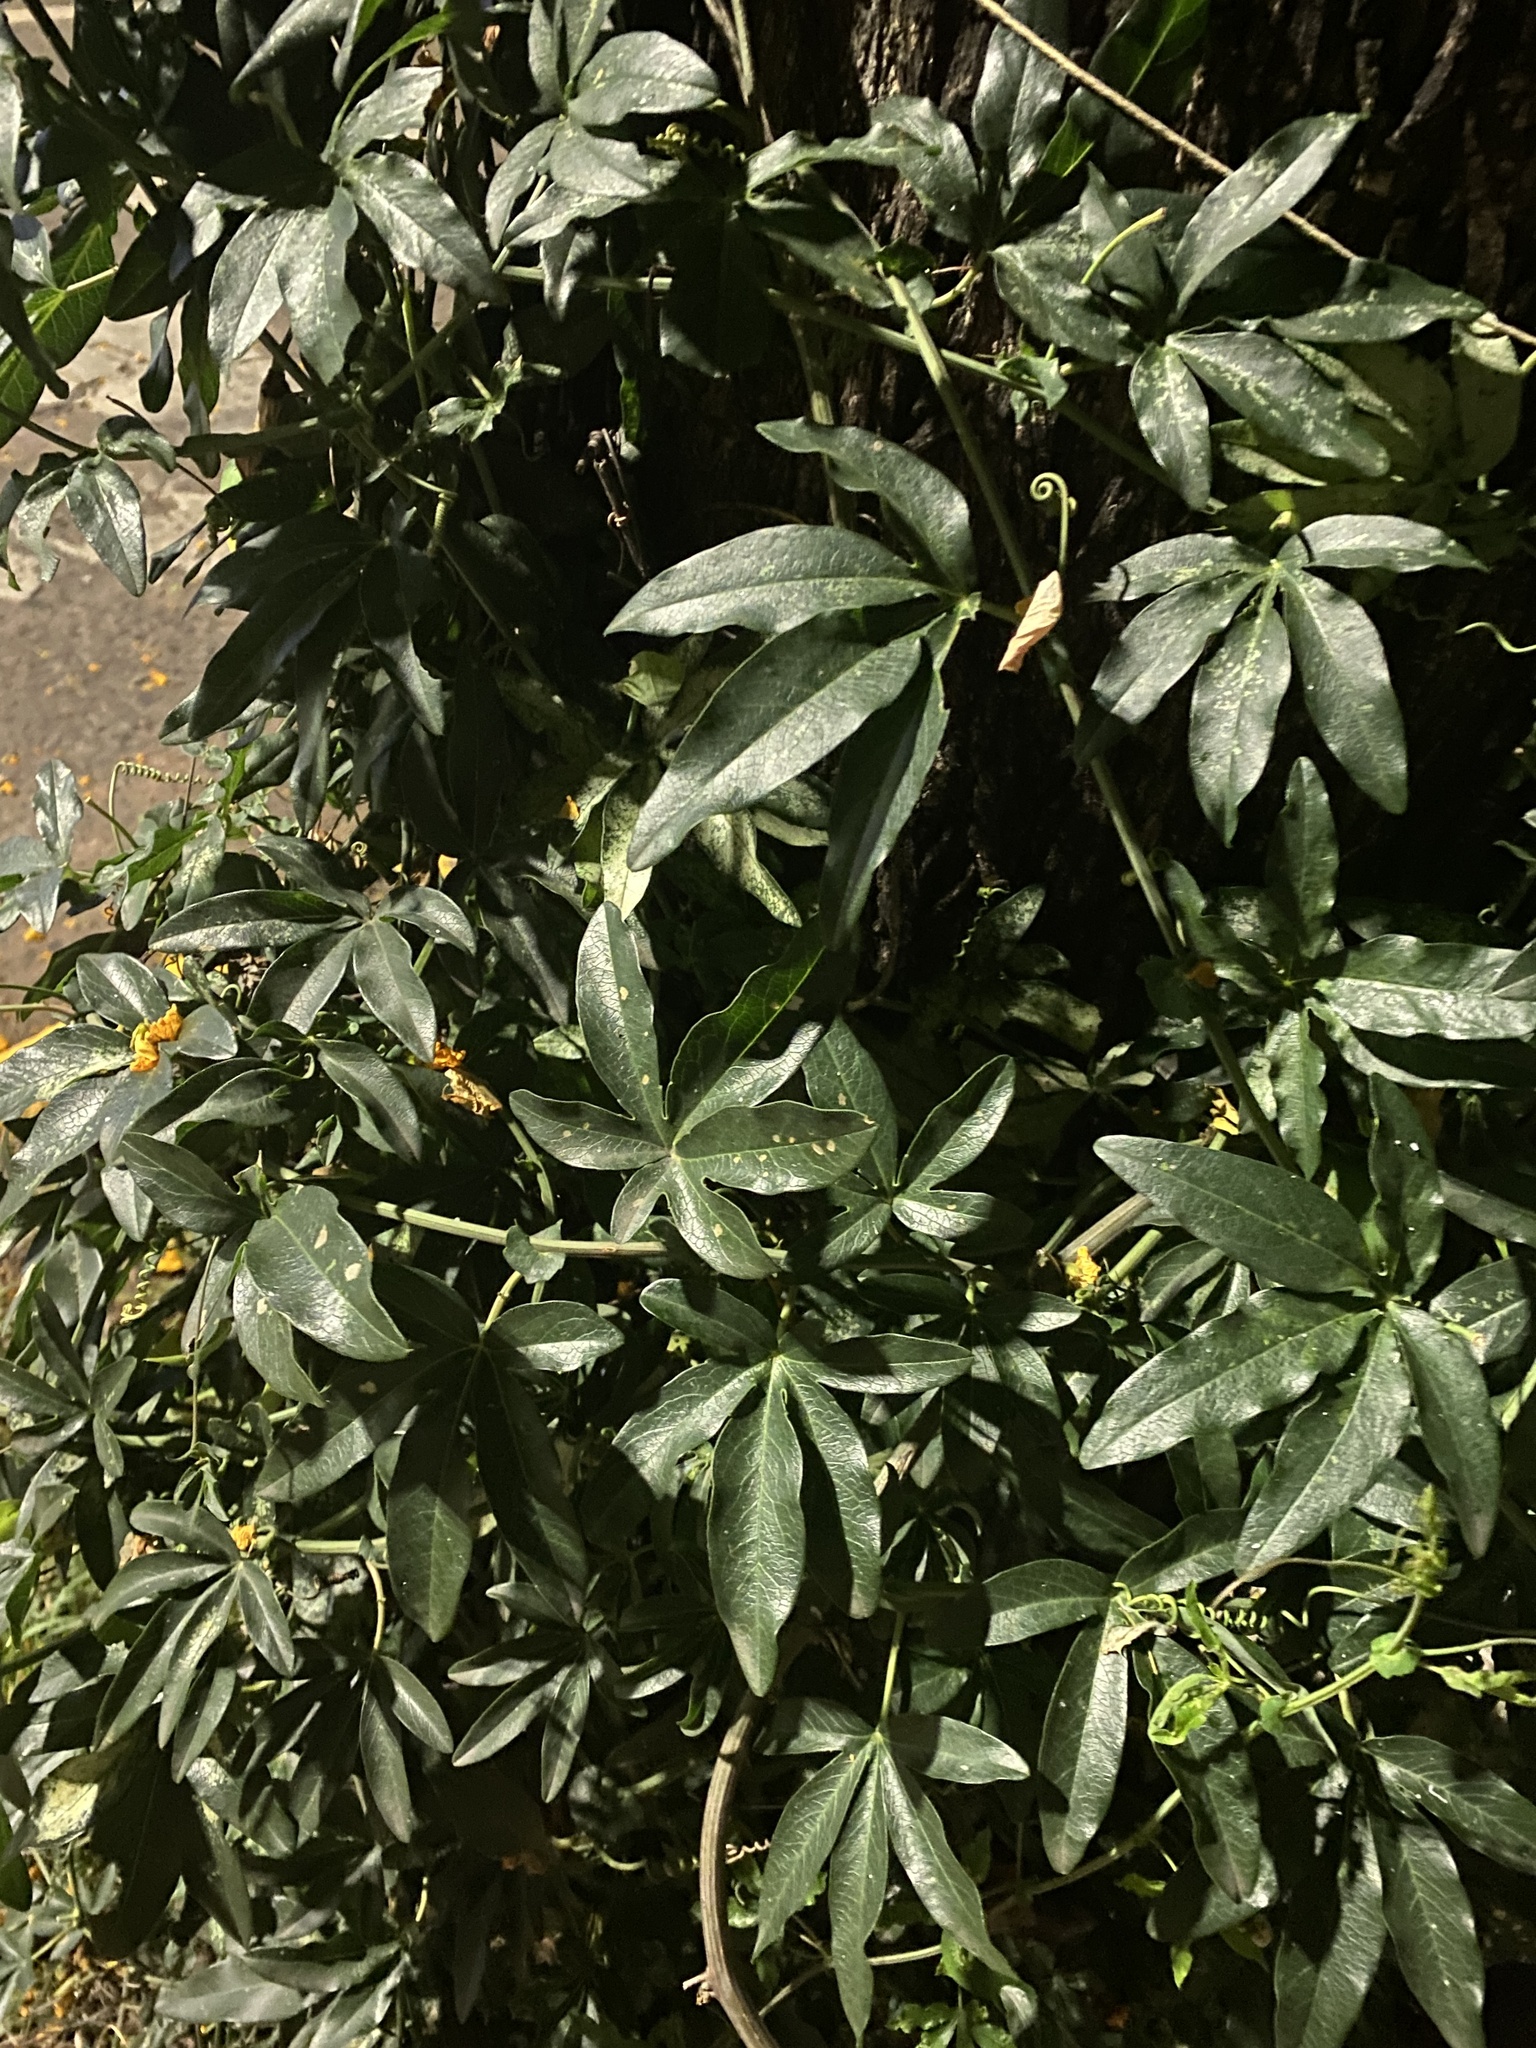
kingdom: Plantae
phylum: Tracheophyta
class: Magnoliopsida
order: Malpighiales
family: Passifloraceae
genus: Passiflora
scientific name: Passiflora caerulea
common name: Blue passionflower
